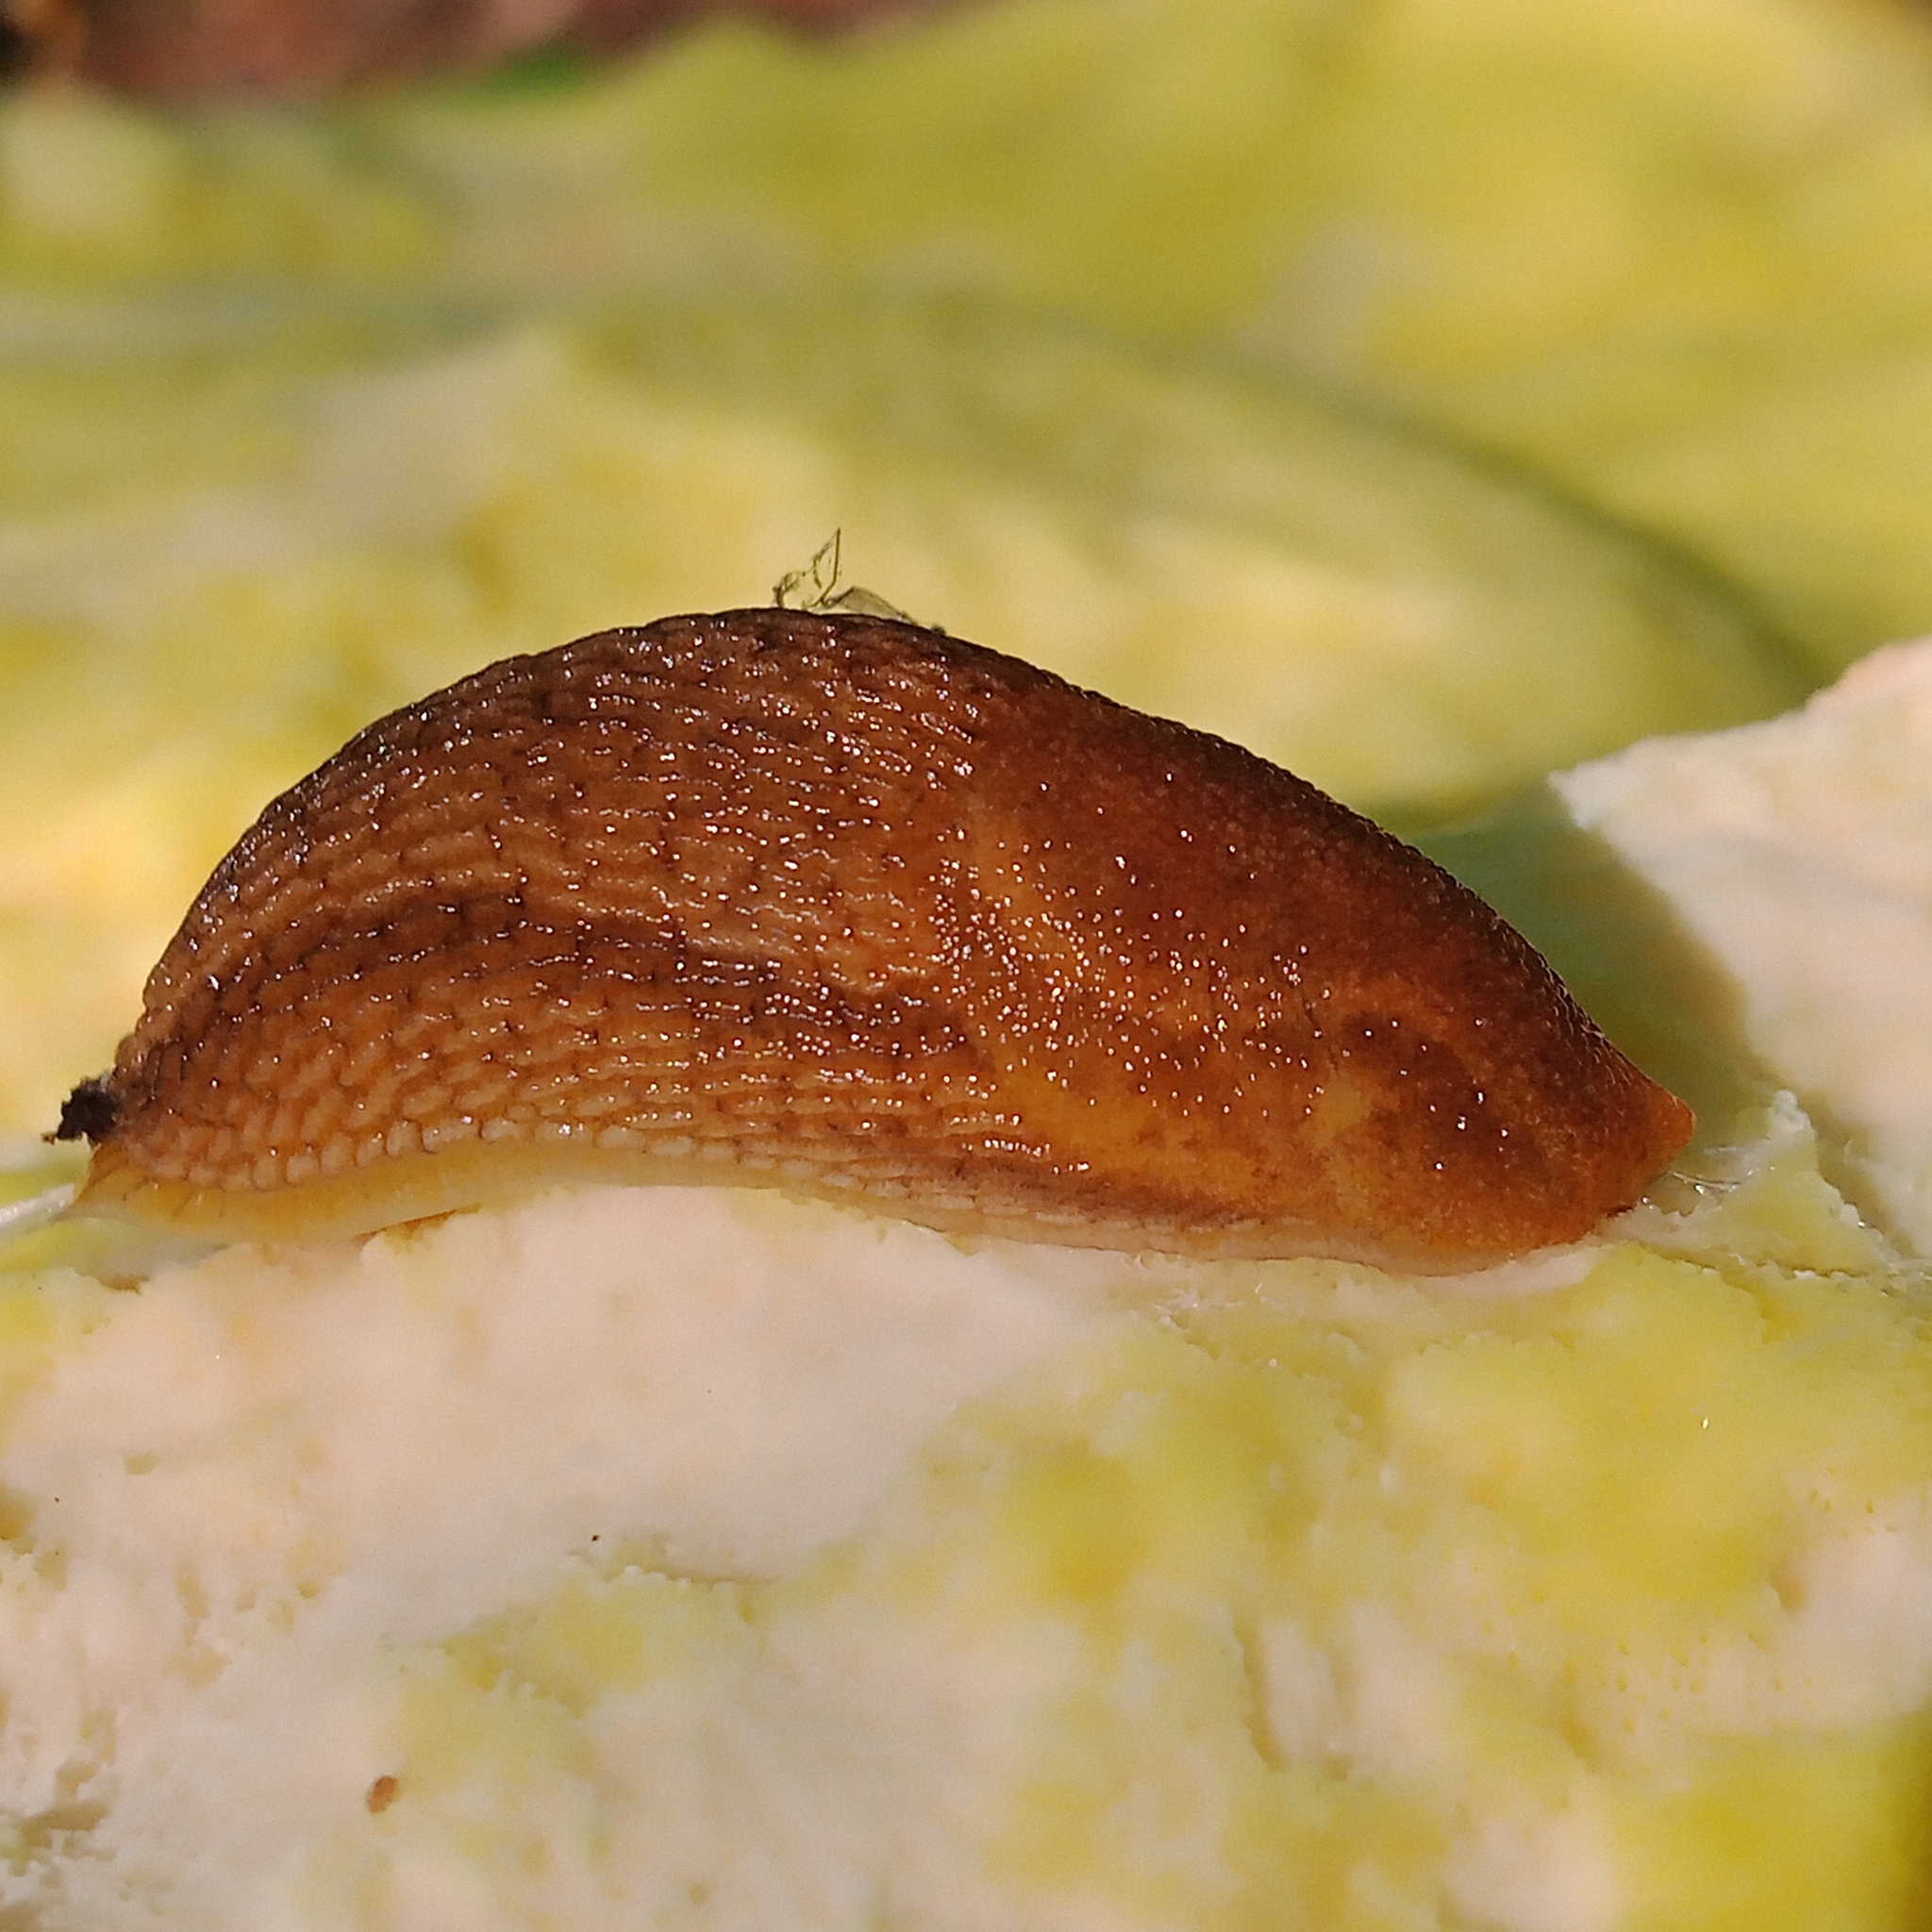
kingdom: Animalia
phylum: Mollusca
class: Gastropoda
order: Stylommatophora
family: Arionidae
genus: Arion
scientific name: Arion fuscus
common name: Northern dusky slug
